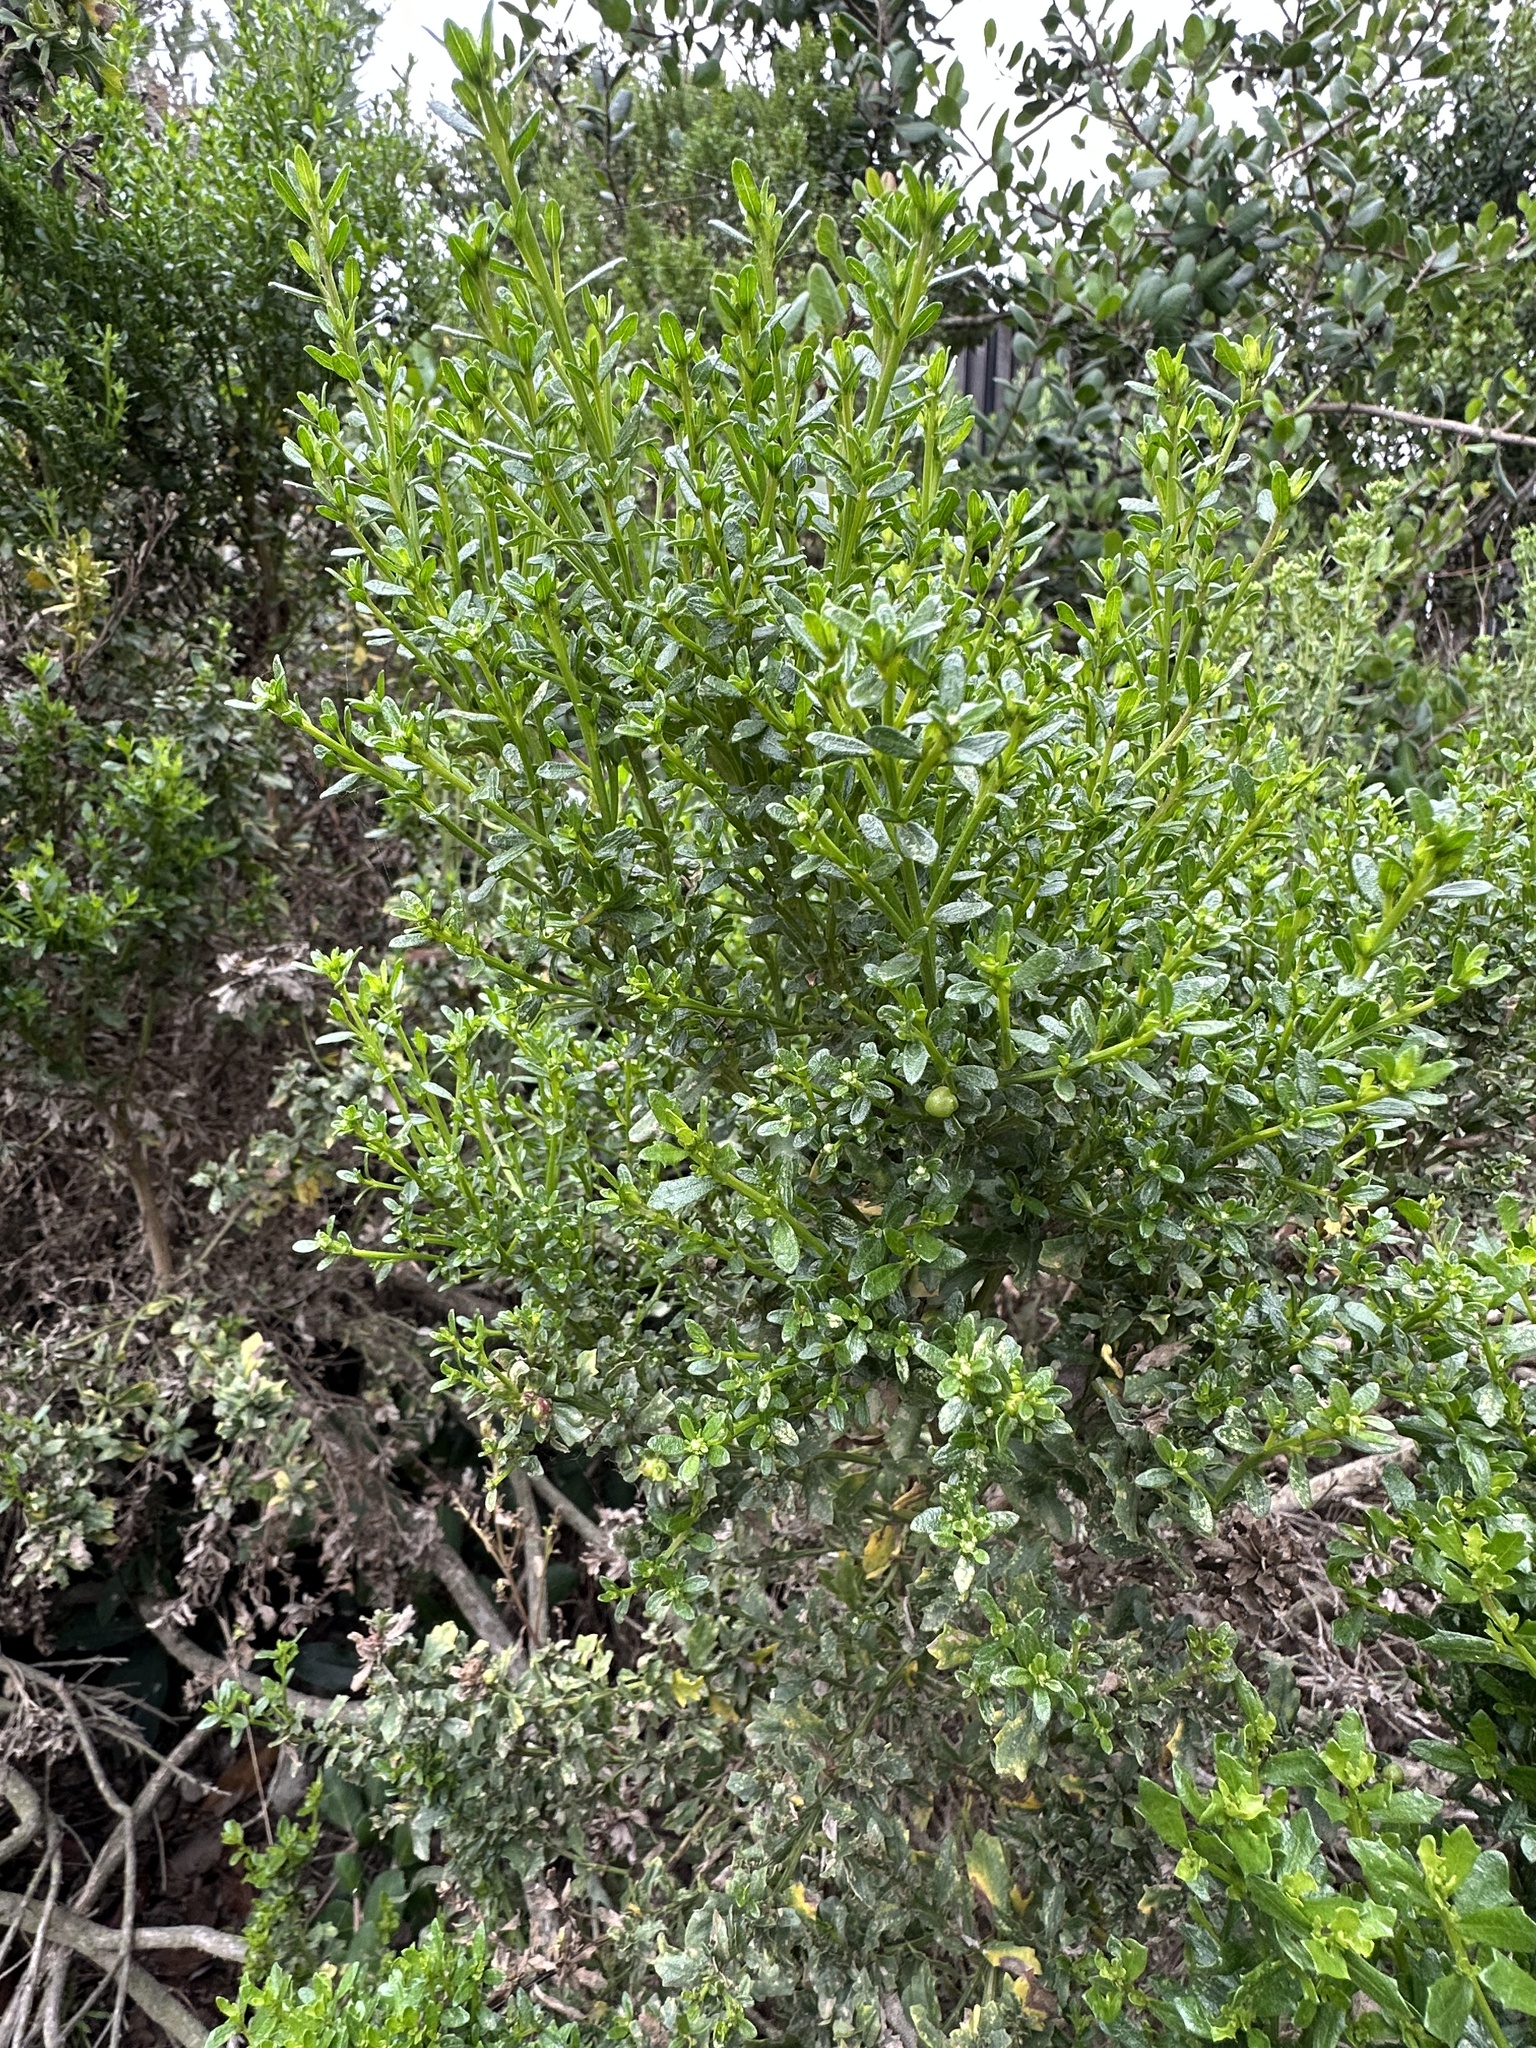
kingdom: Plantae
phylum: Tracheophyta
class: Magnoliopsida
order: Asterales
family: Asteraceae
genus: Baccharis
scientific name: Baccharis pilularis
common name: Coyotebrush
